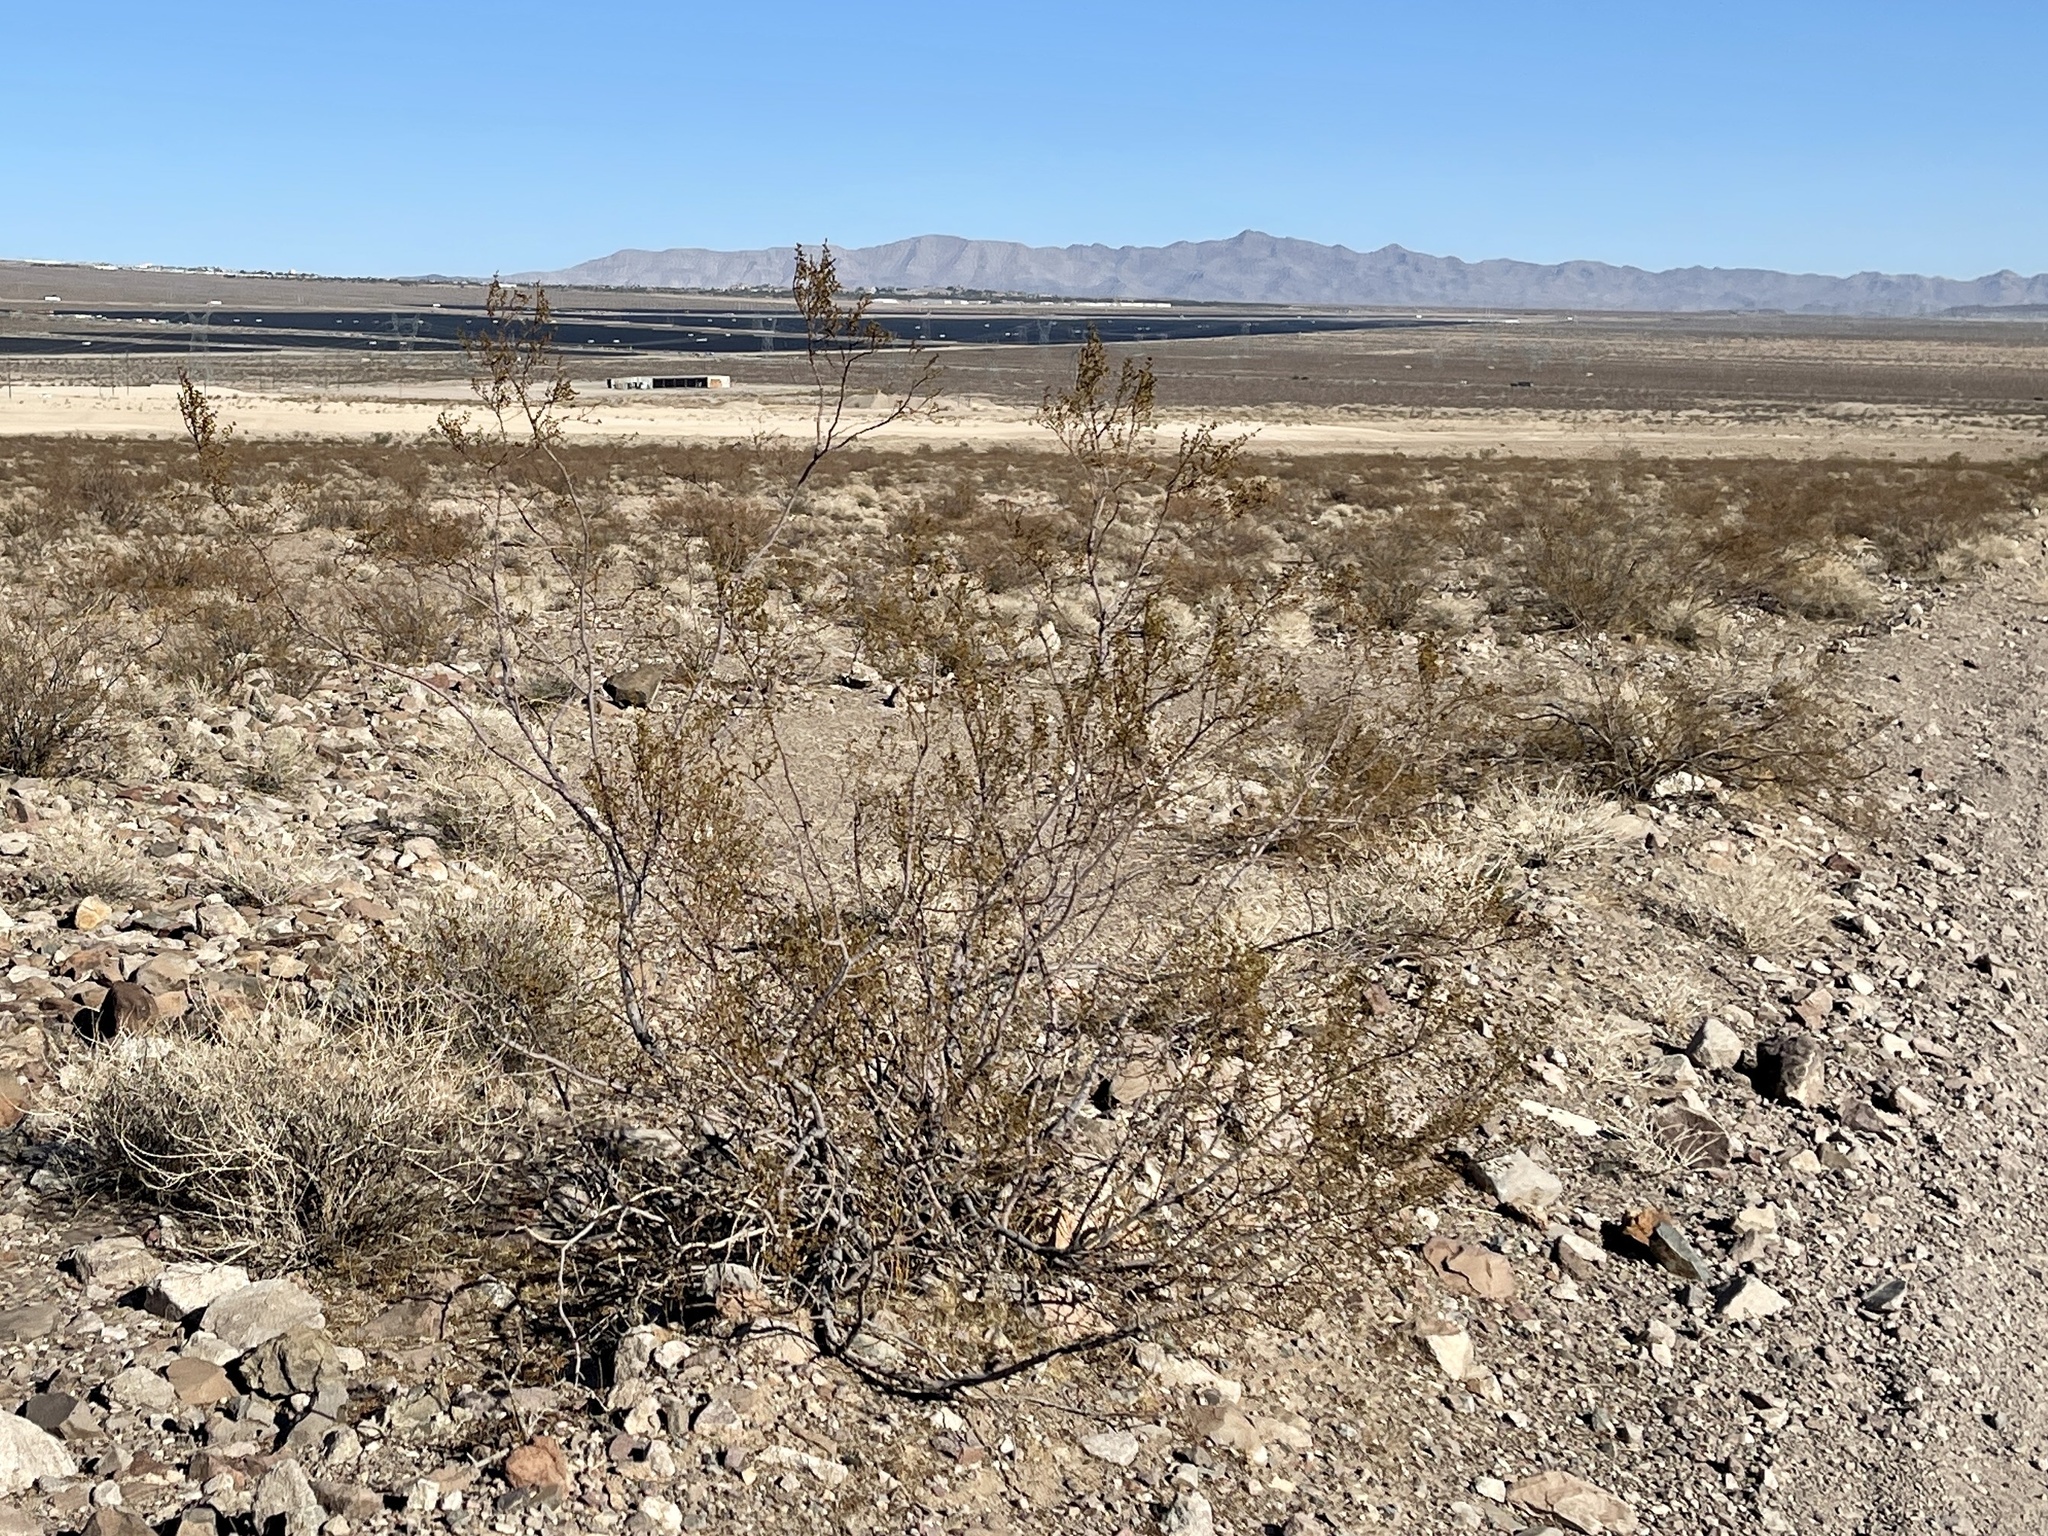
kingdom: Plantae
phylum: Tracheophyta
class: Magnoliopsida
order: Zygophyllales
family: Zygophyllaceae
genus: Larrea
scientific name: Larrea tridentata
